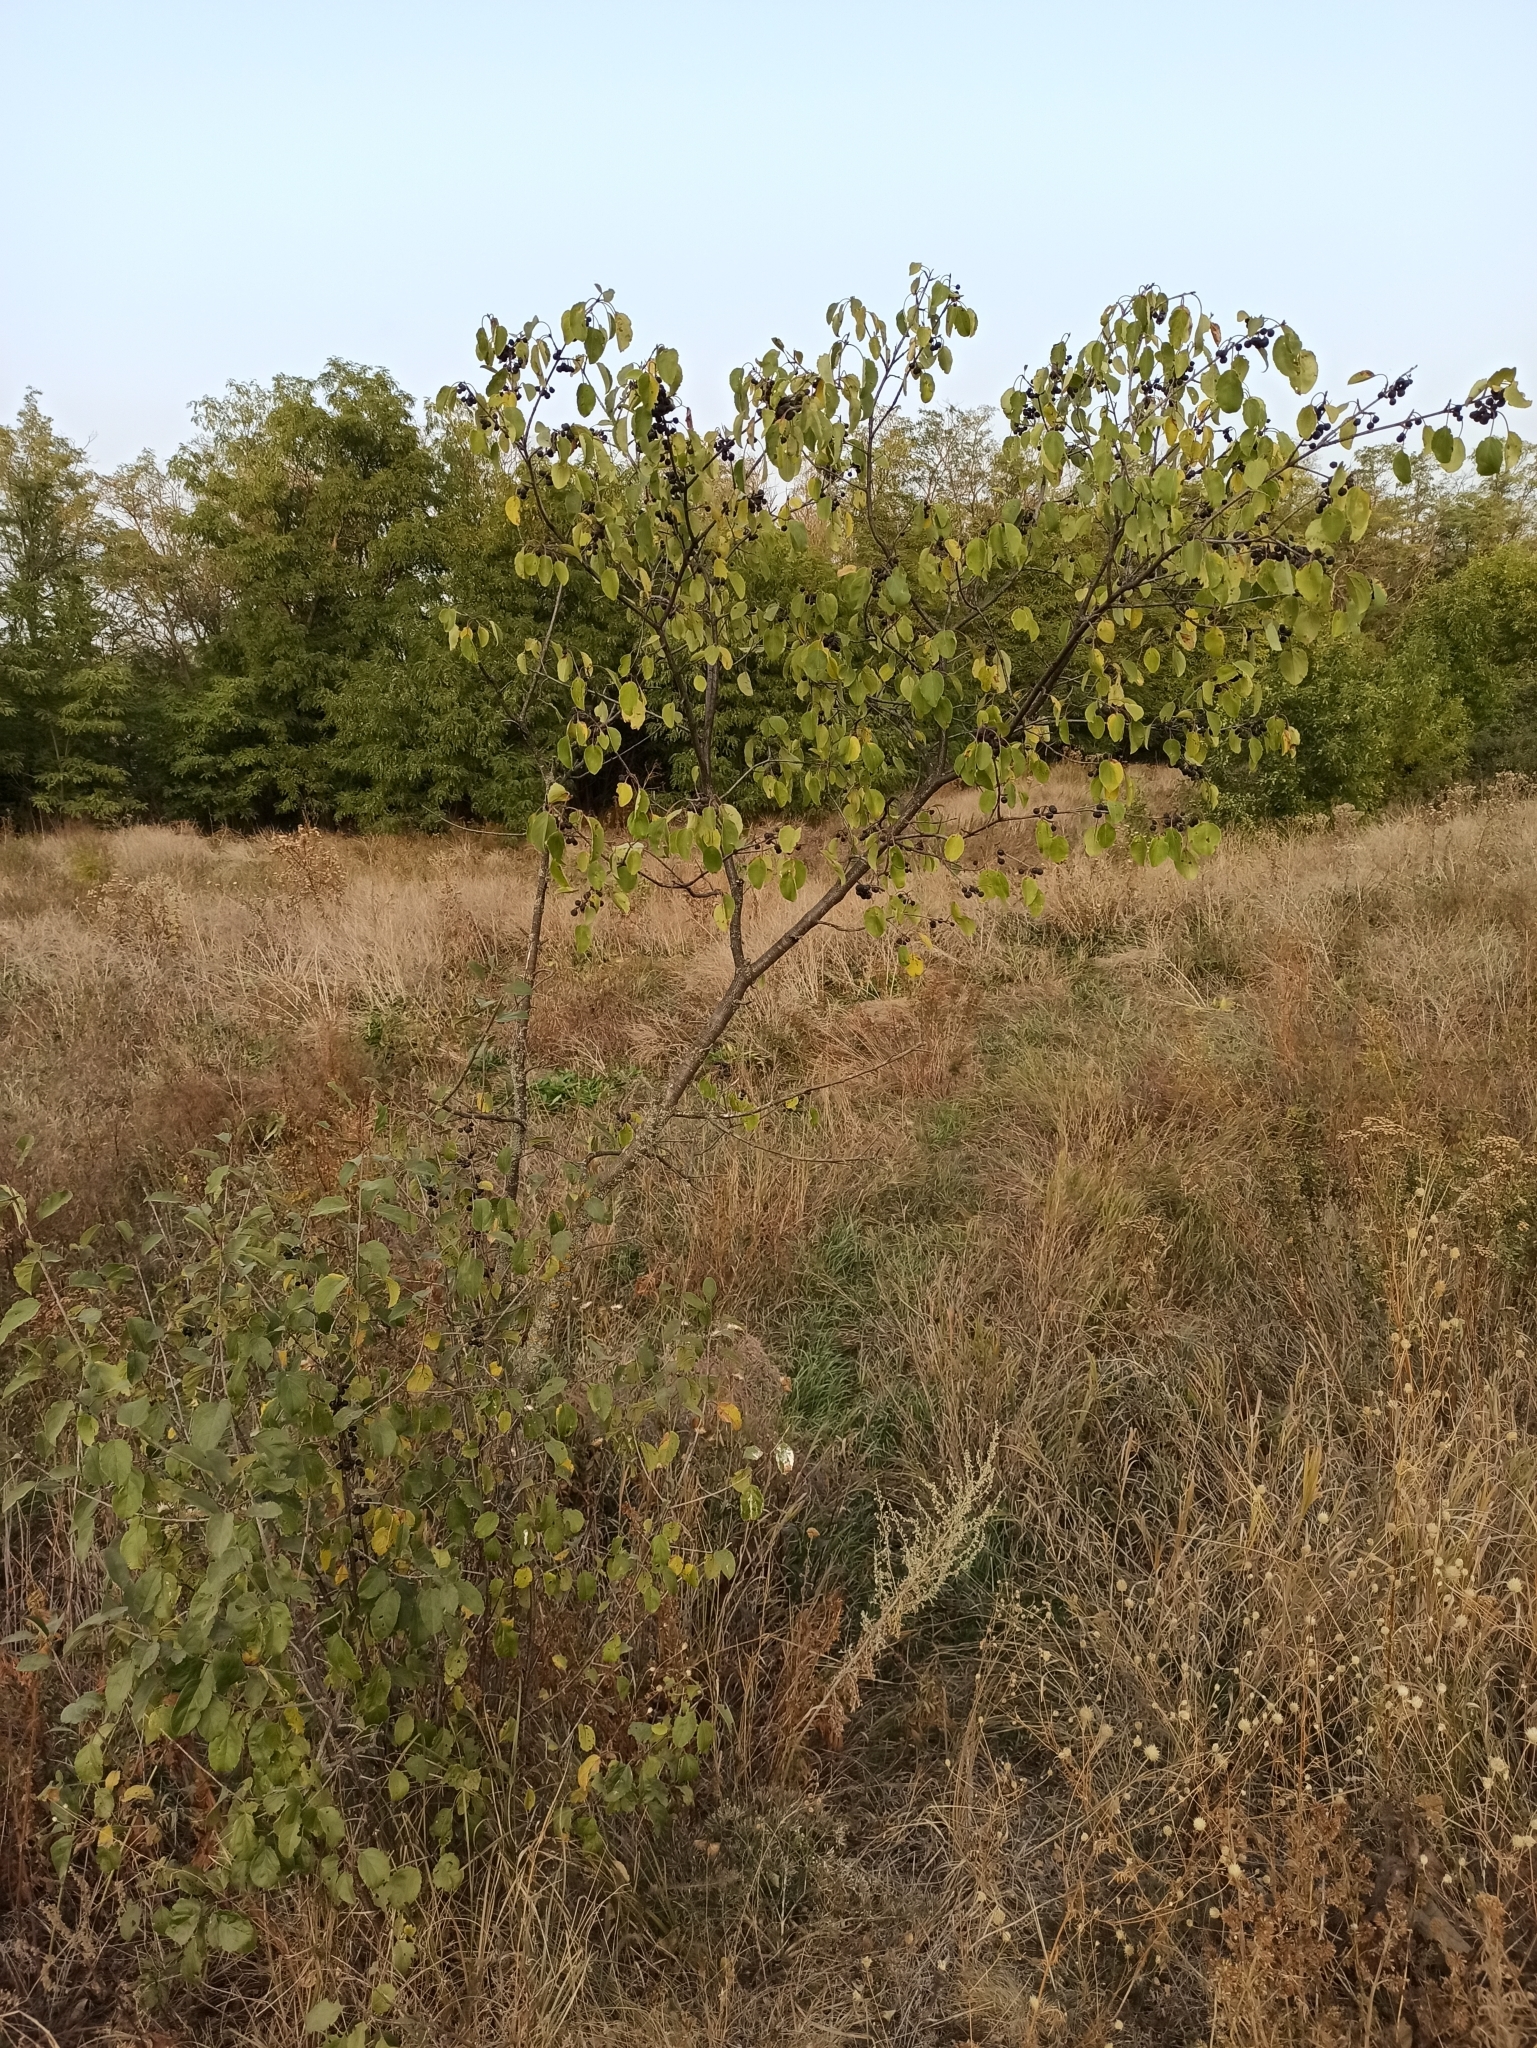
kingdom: Plantae
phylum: Tracheophyta
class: Magnoliopsida
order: Rosales
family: Rhamnaceae
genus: Rhamnus
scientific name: Rhamnus cathartica
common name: Common buckthorn
